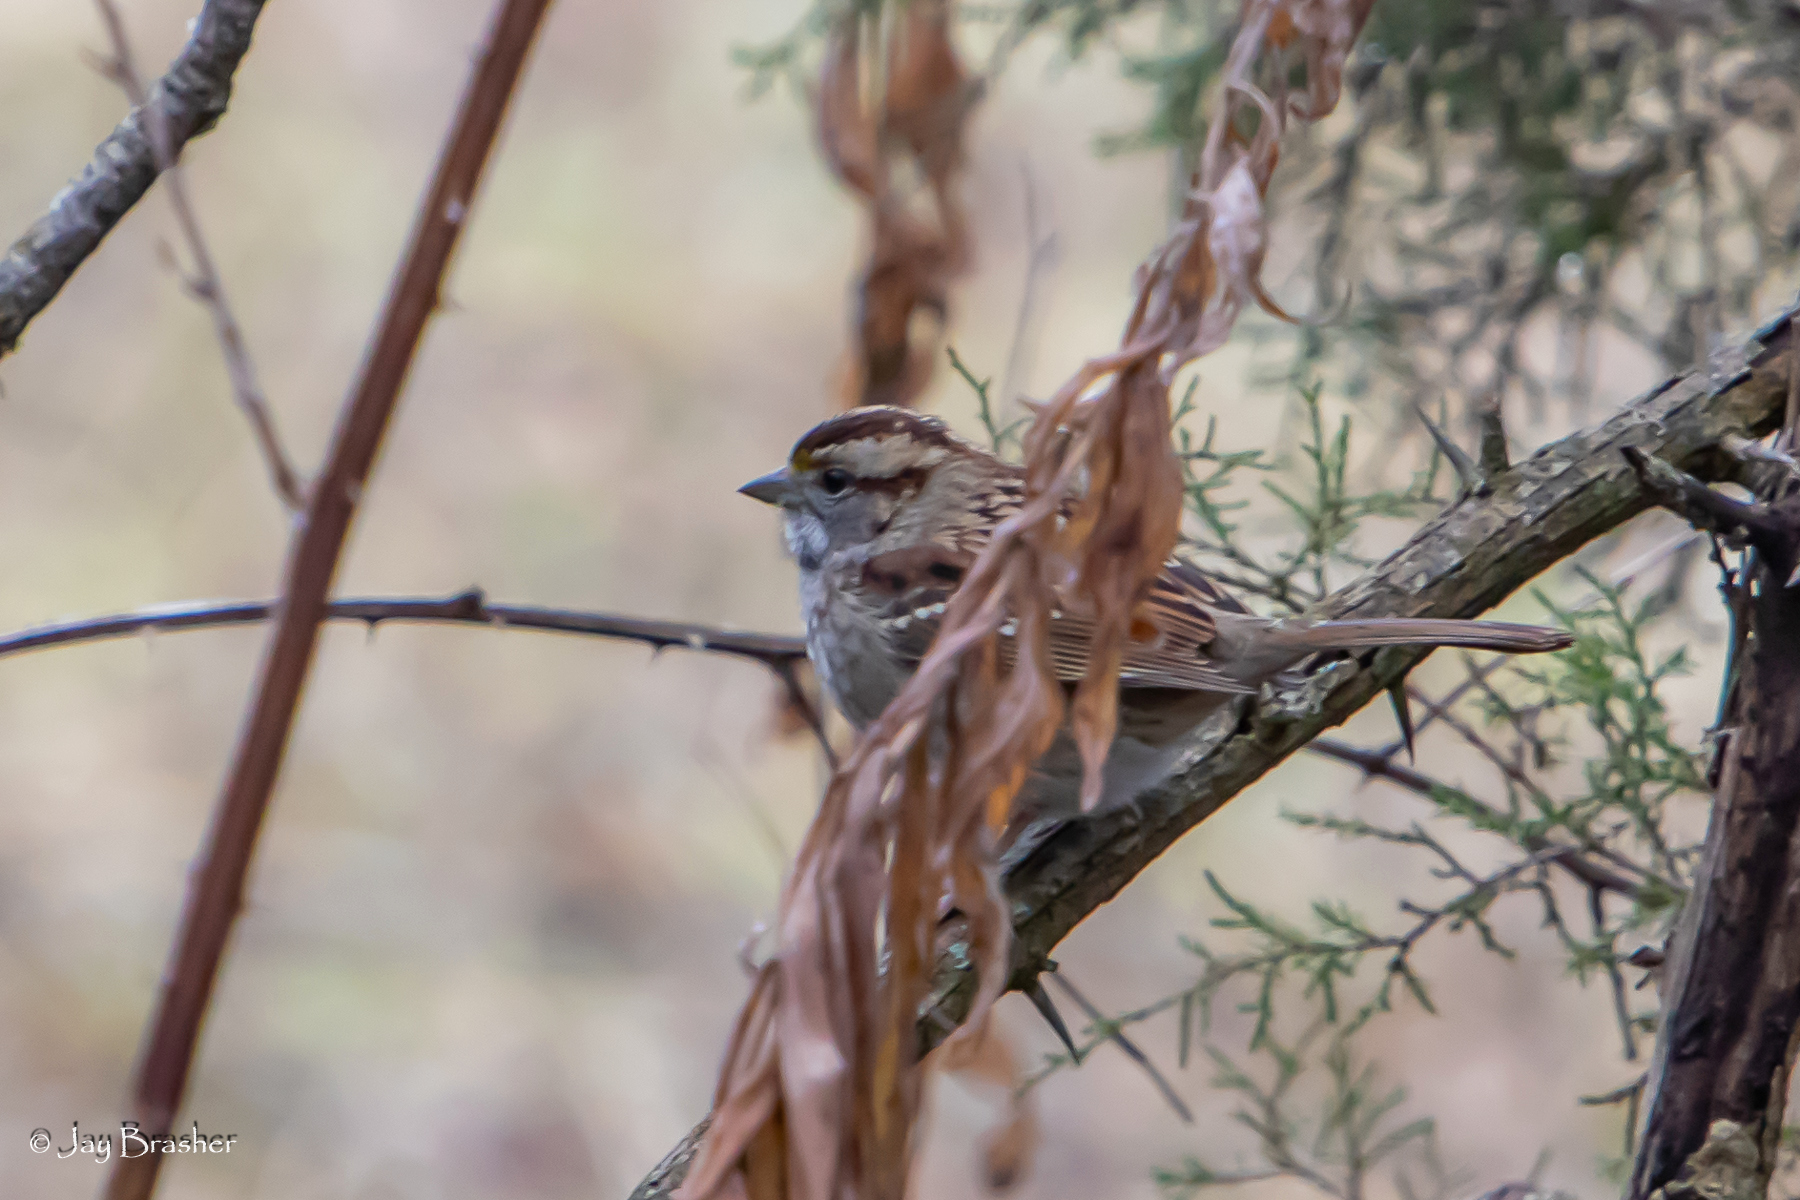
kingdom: Animalia
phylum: Chordata
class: Aves
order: Passeriformes
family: Passerellidae
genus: Zonotrichia
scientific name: Zonotrichia albicollis
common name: White-throated sparrow
